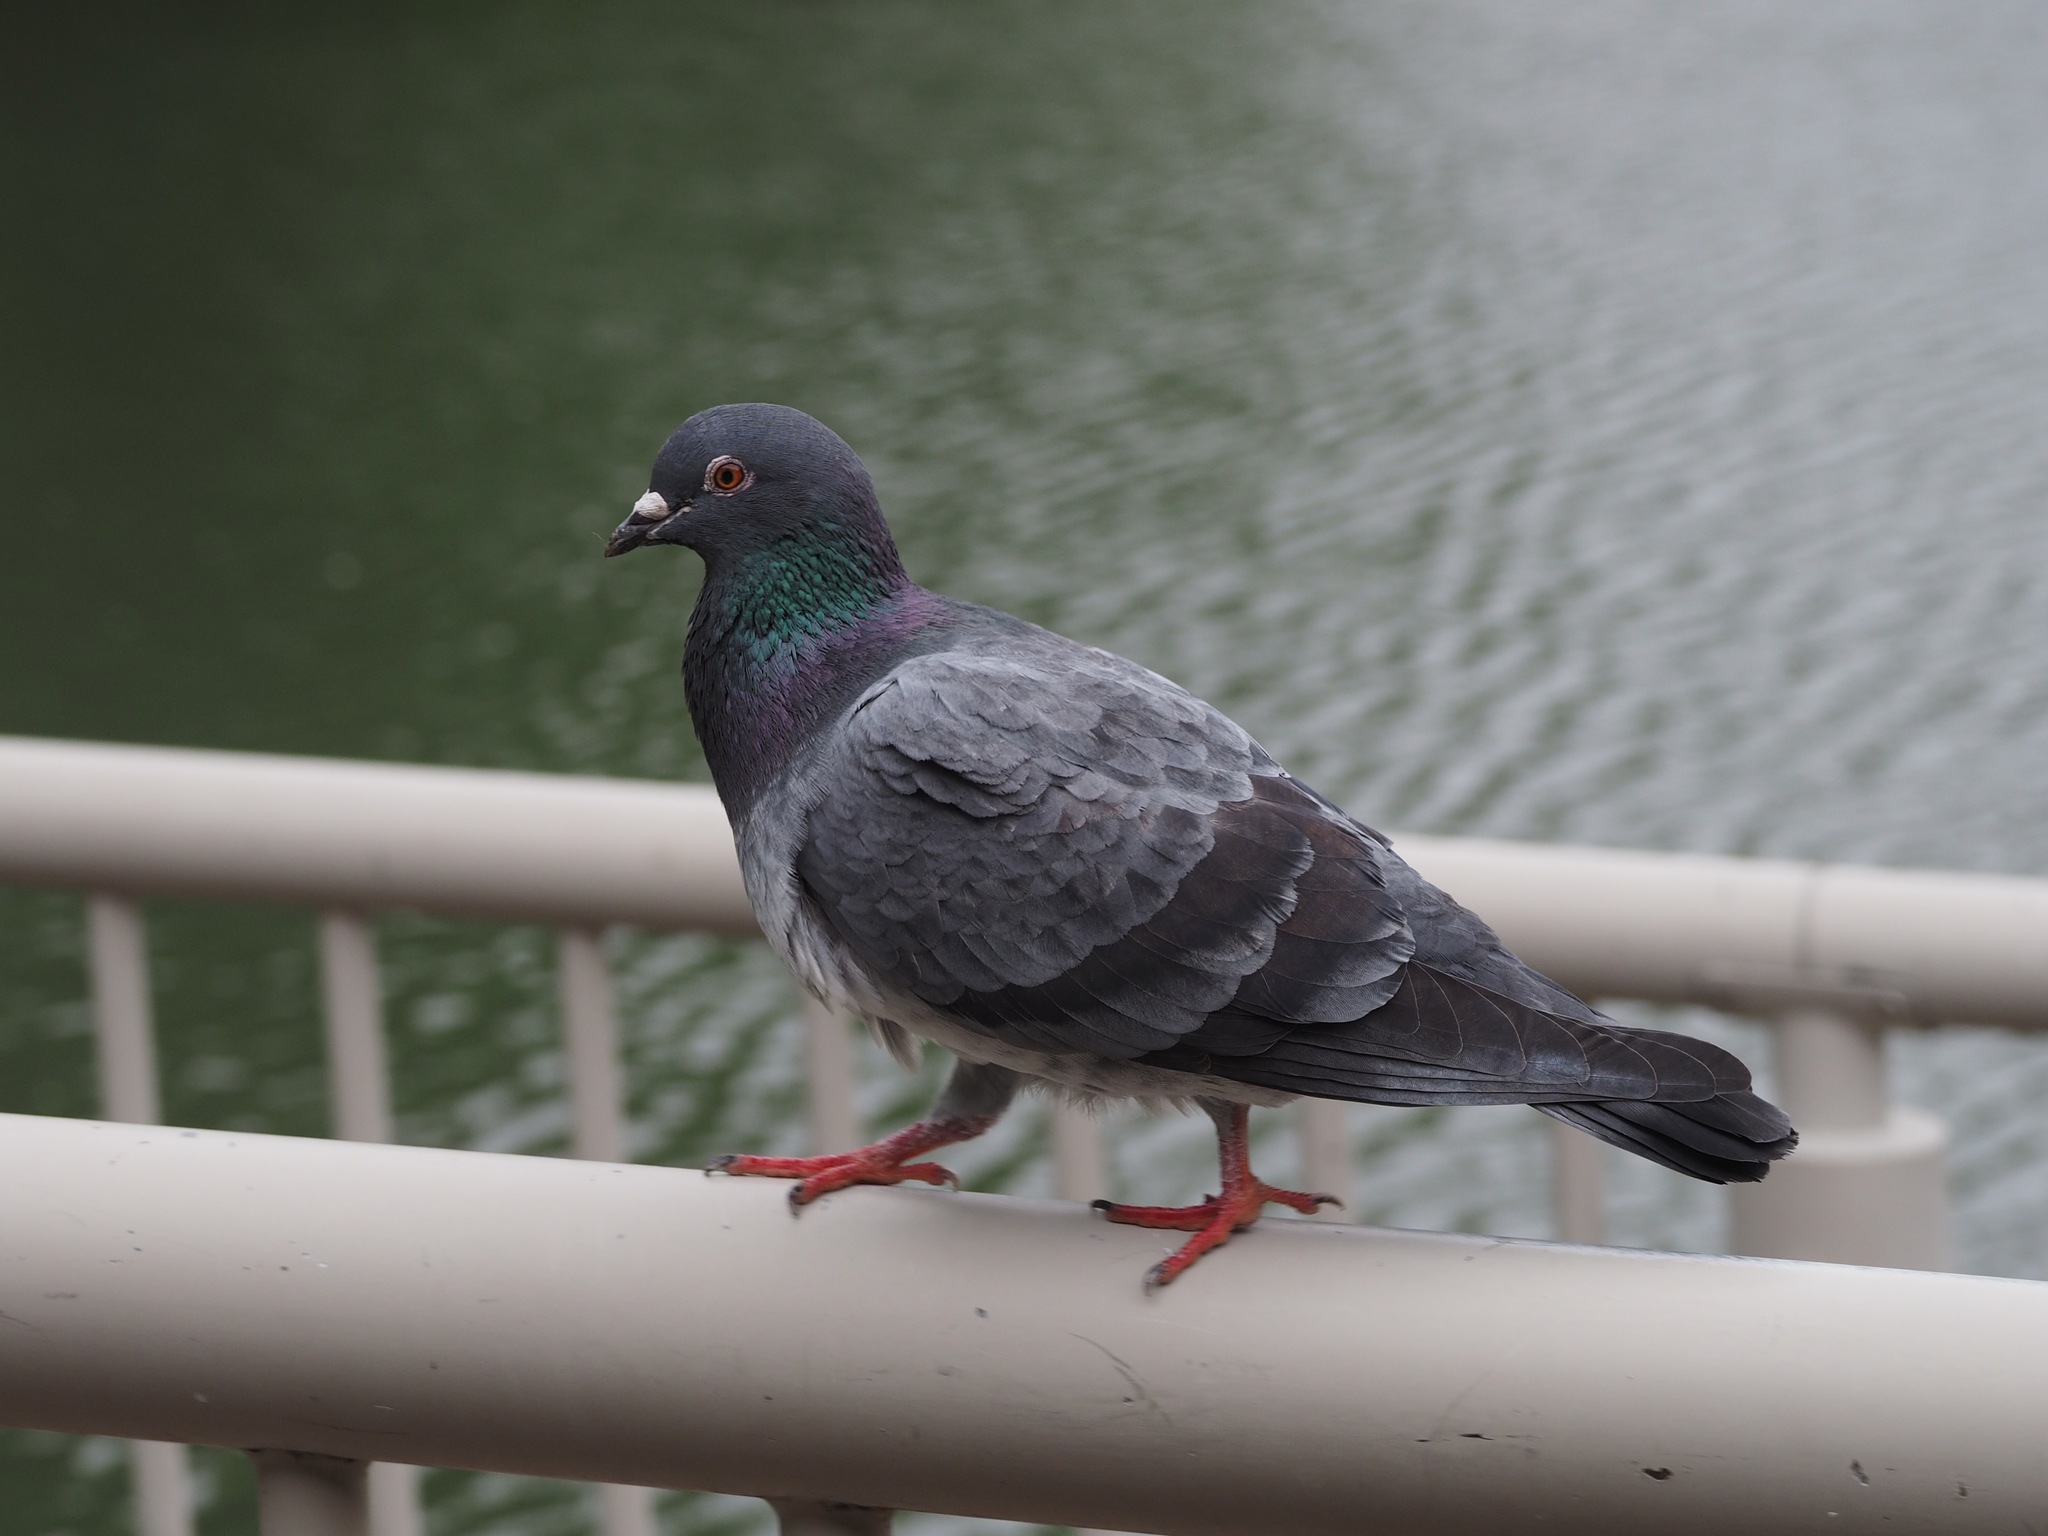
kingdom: Animalia
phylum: Chordata
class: Aves
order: Columbiformes
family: Columbidae
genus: Columba
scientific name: Columba livia
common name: Rock pigeon
